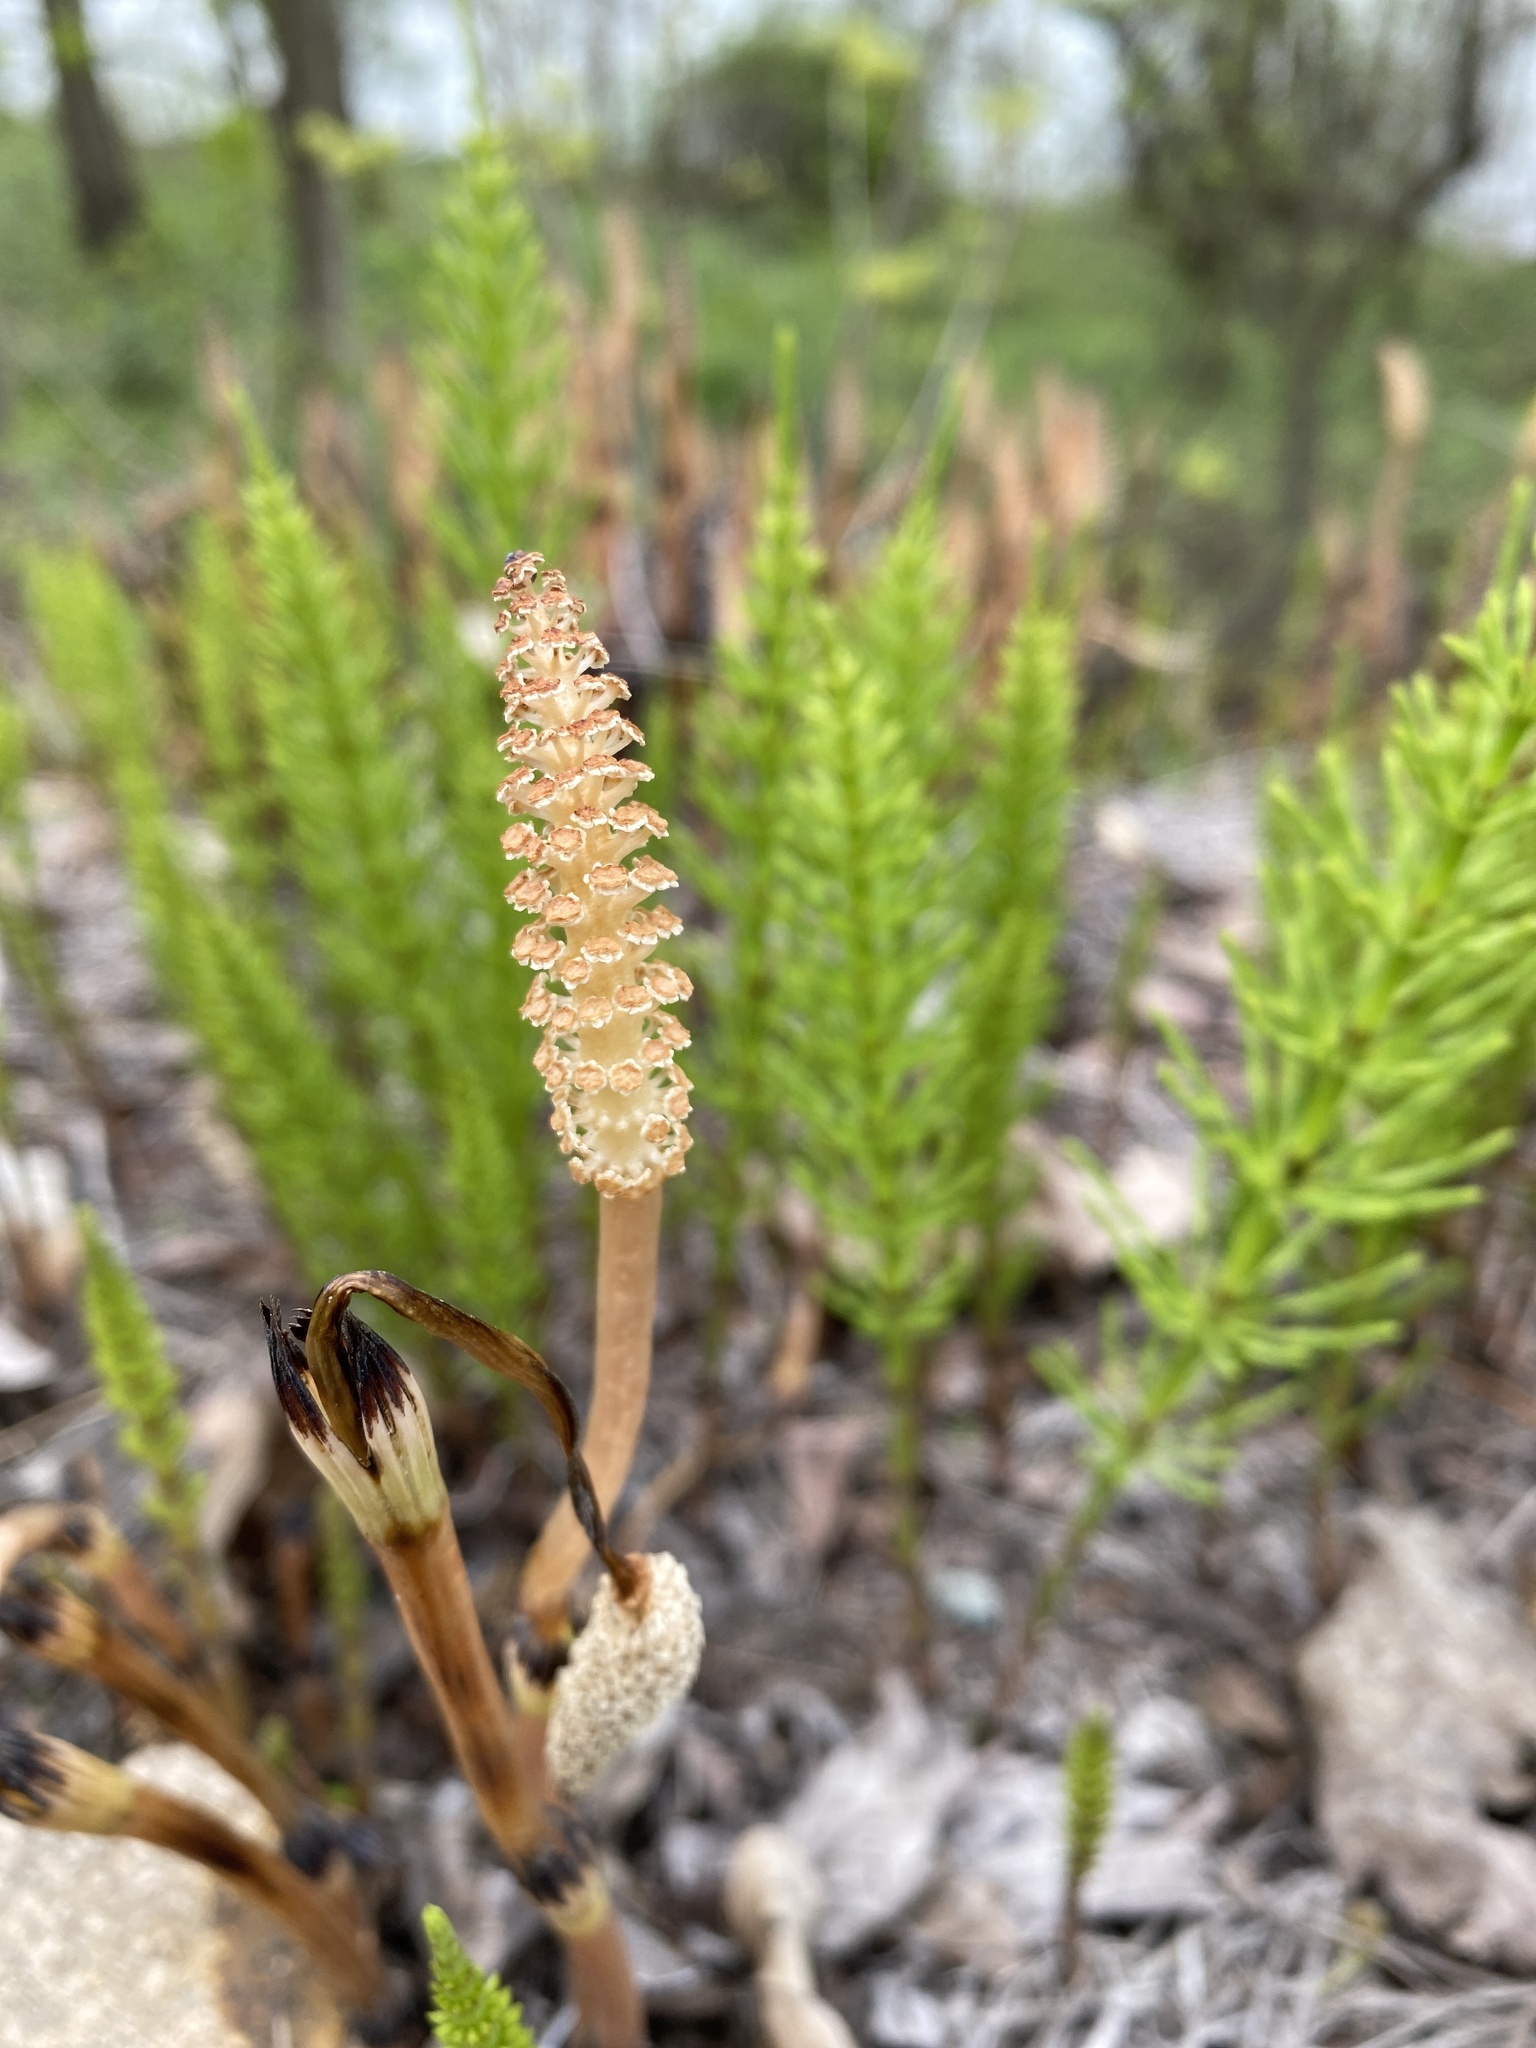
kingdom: Plantae
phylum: Tracheophyta
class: Polypodiopsida
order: Equisetales
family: Equisetaceae
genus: Equisetum
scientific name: Equisetum arvense
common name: Field horsetail
